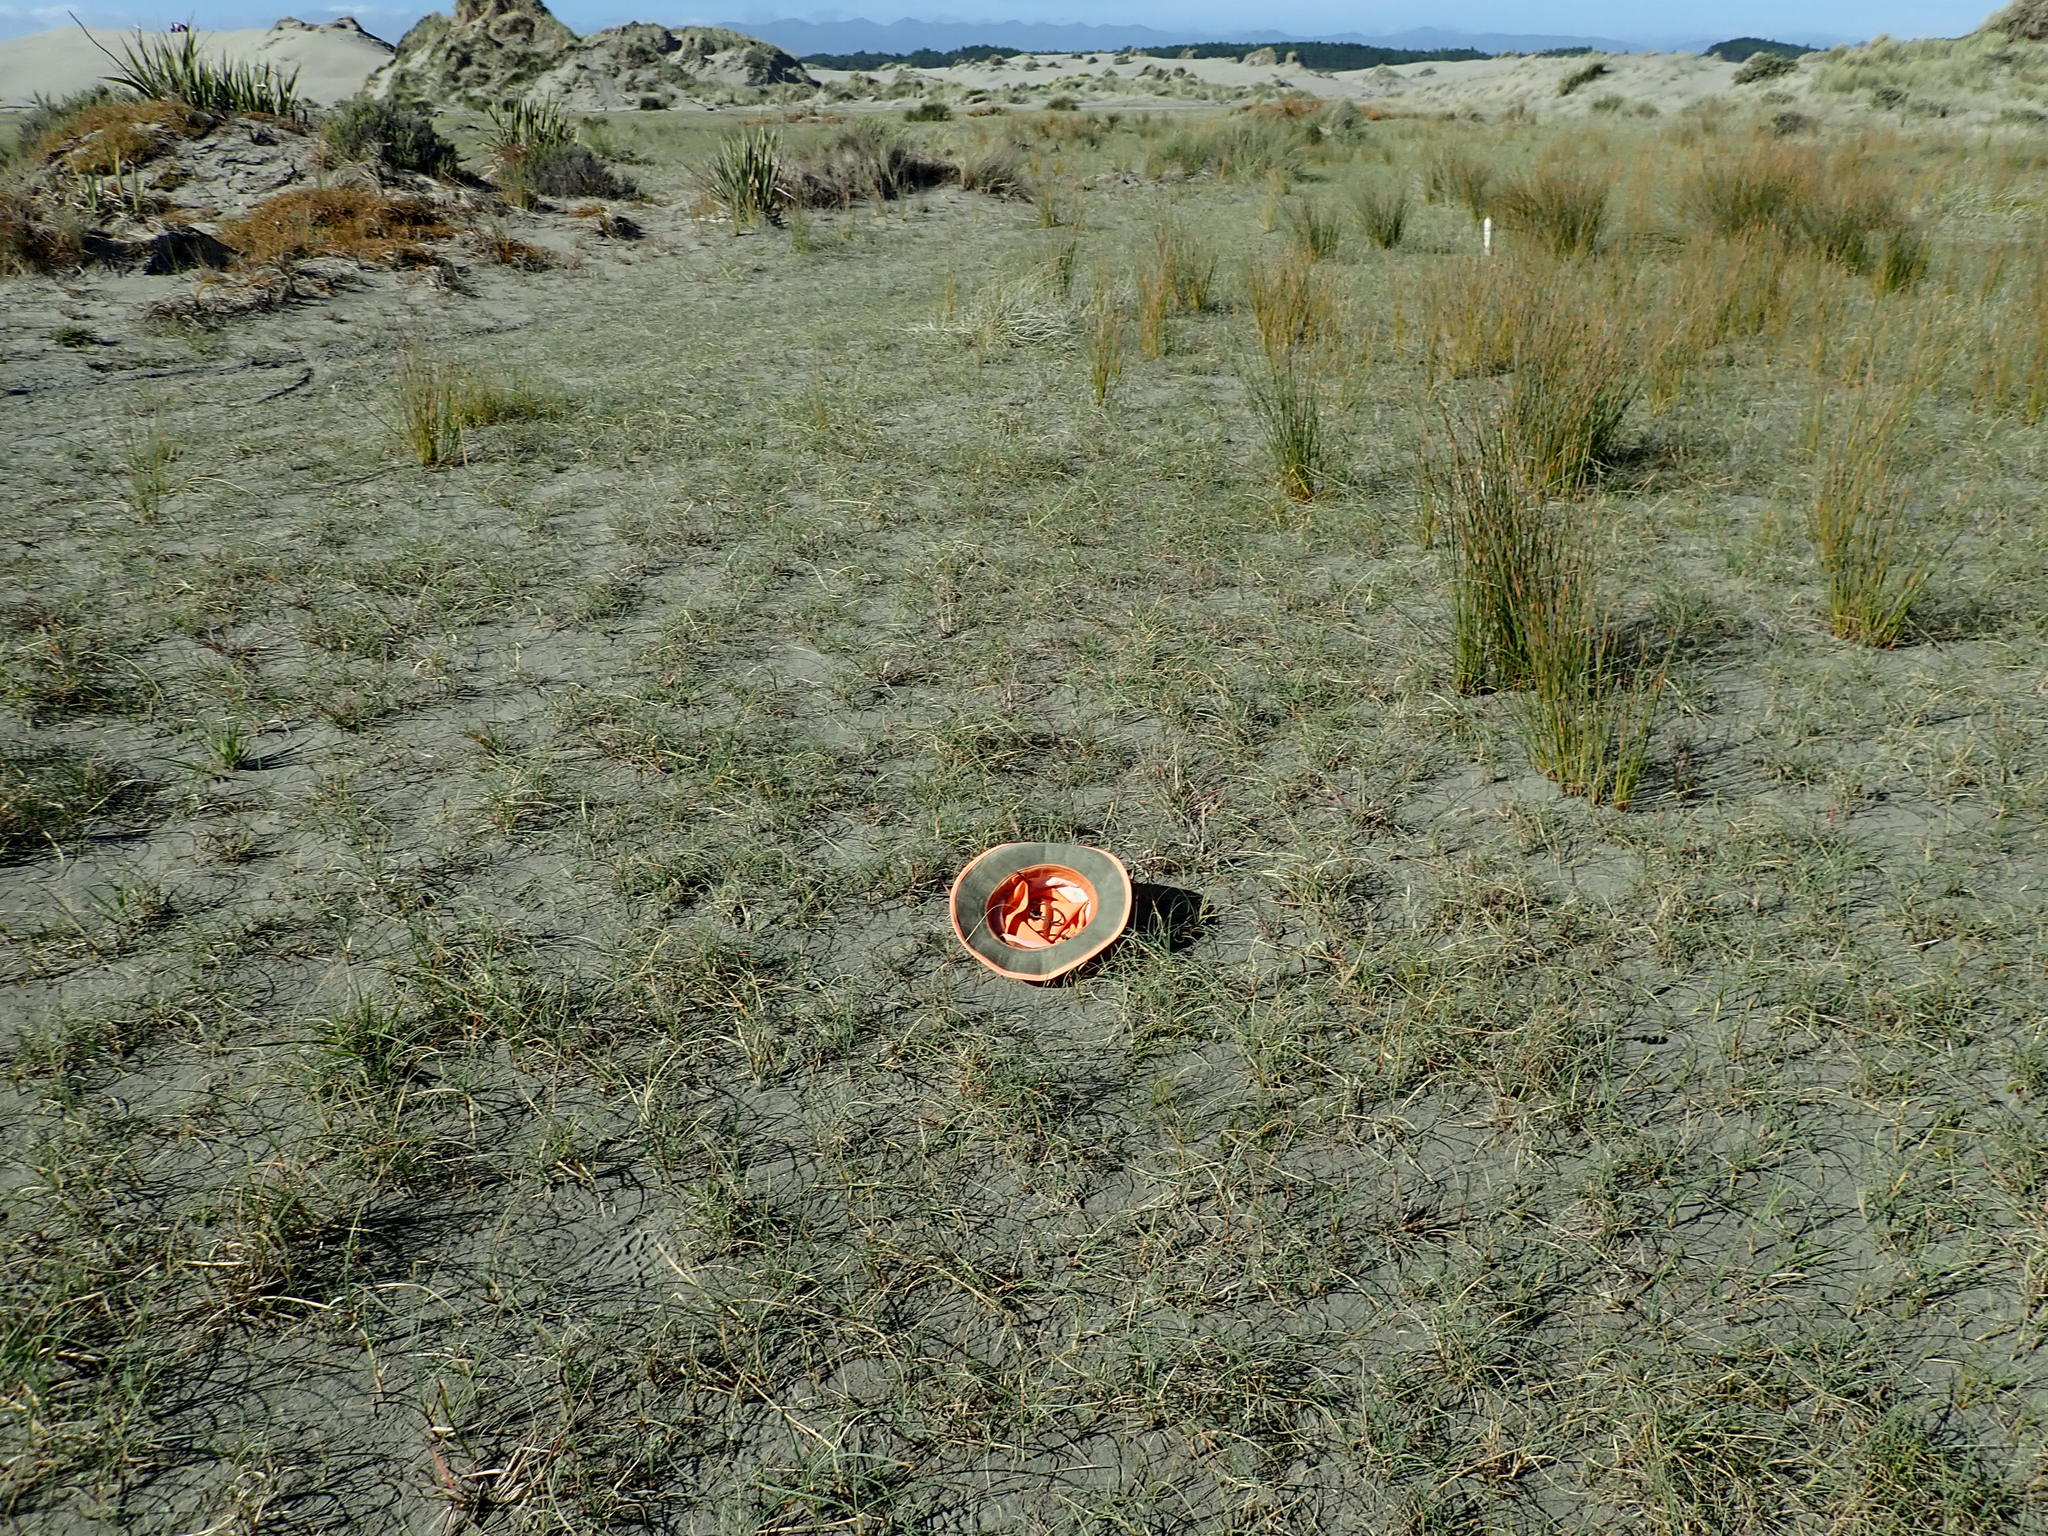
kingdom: Plantae
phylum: Tracheophyta
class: Magnoliopsida
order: Asterales
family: Campanulaceae
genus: Lobelia
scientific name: Lobelia anceps
